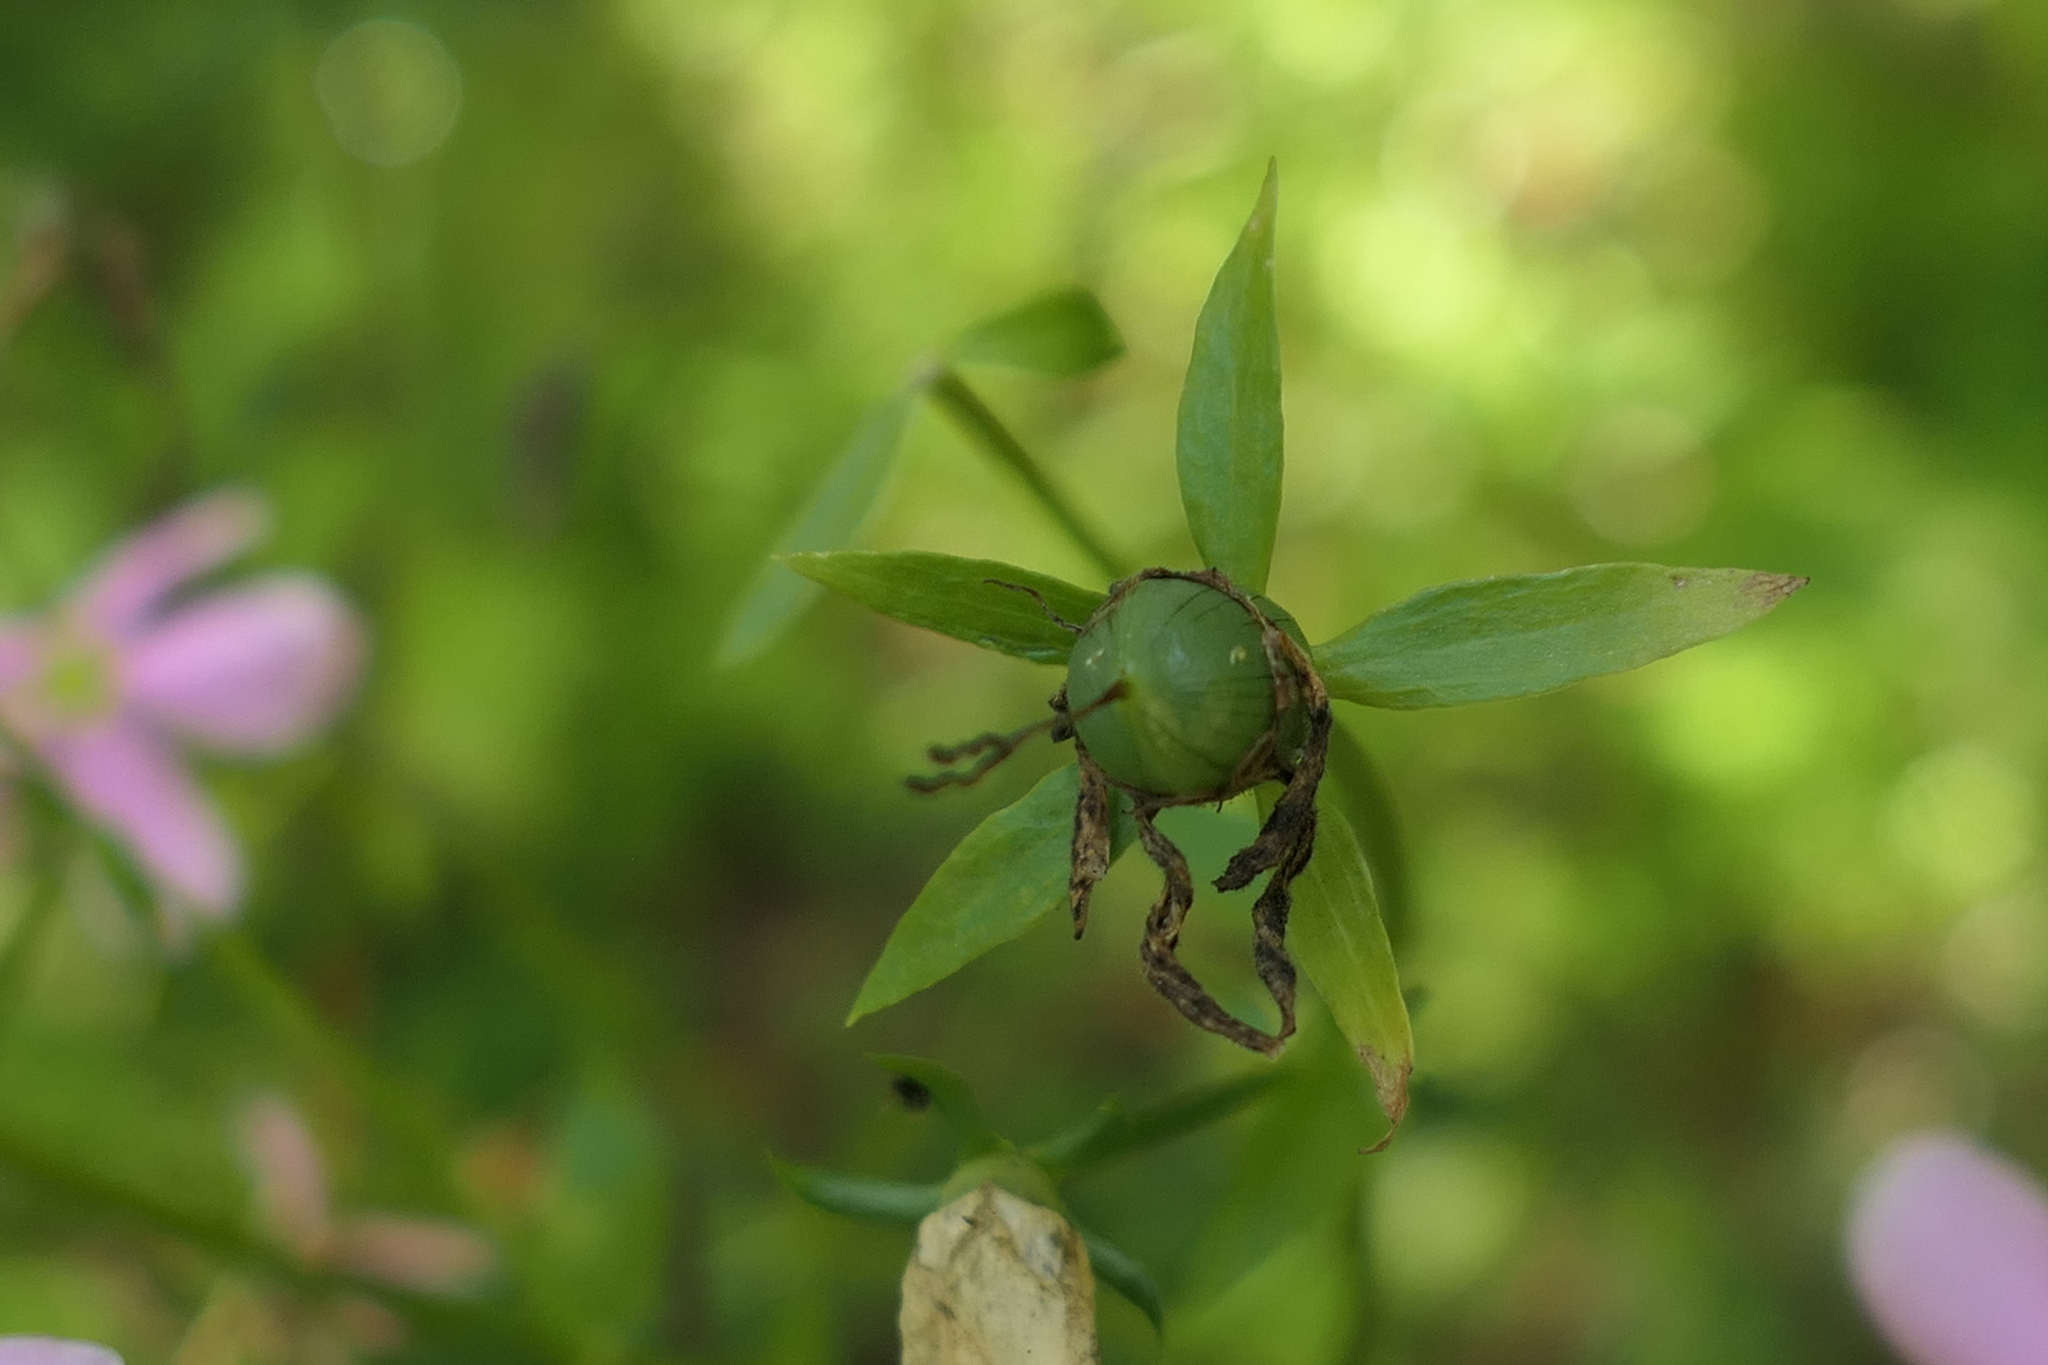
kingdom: Plantae
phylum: Tracheophyta
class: Magnoliopsida
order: Gentianales
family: Gentianaceae
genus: Sabatia
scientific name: Sabatia angularis
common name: Rose-pink
